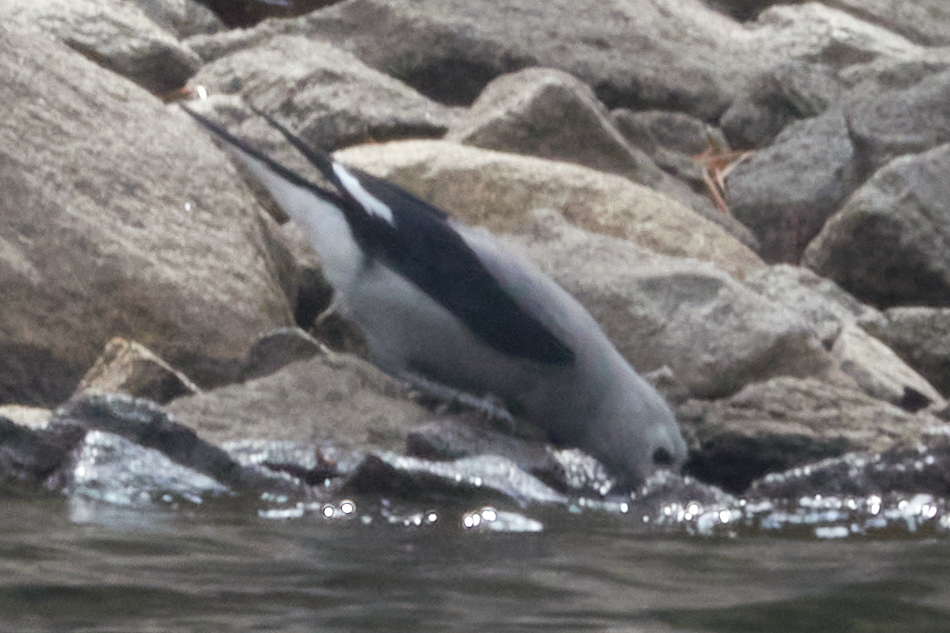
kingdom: Animalia
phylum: Chordata
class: Aves
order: Passeriformes
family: Corvidae
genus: Nucifraga
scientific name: Nucifraga columbiana
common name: Clark's nutcracker
